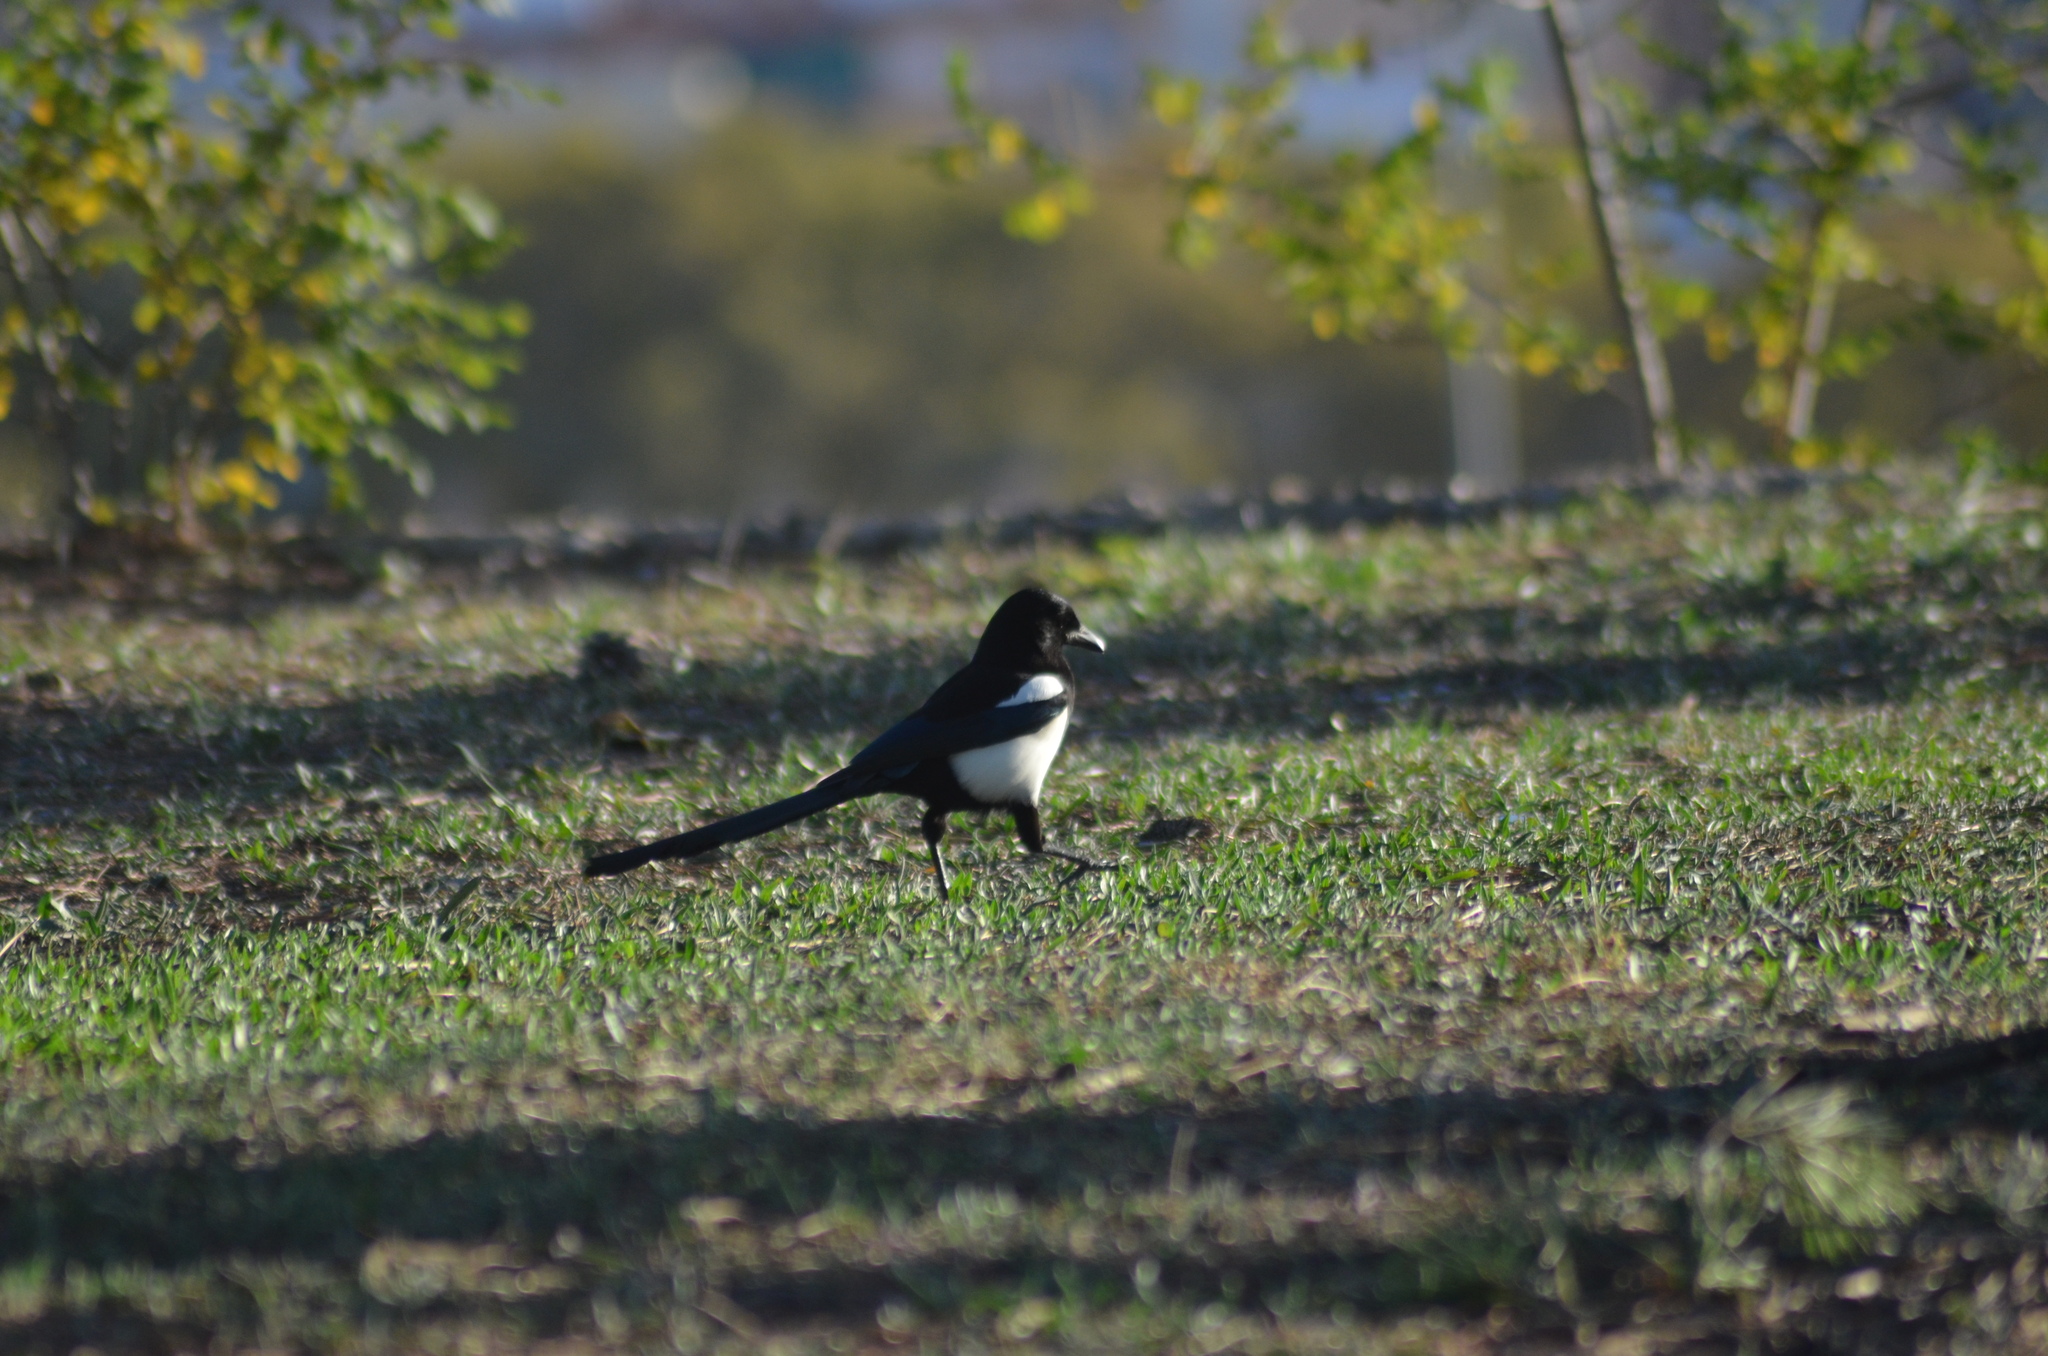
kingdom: Animalia
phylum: Chordata
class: Aves
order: Passeriformes
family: Corvidae
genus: Pica
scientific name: Pica pica
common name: Eurasian magpie
